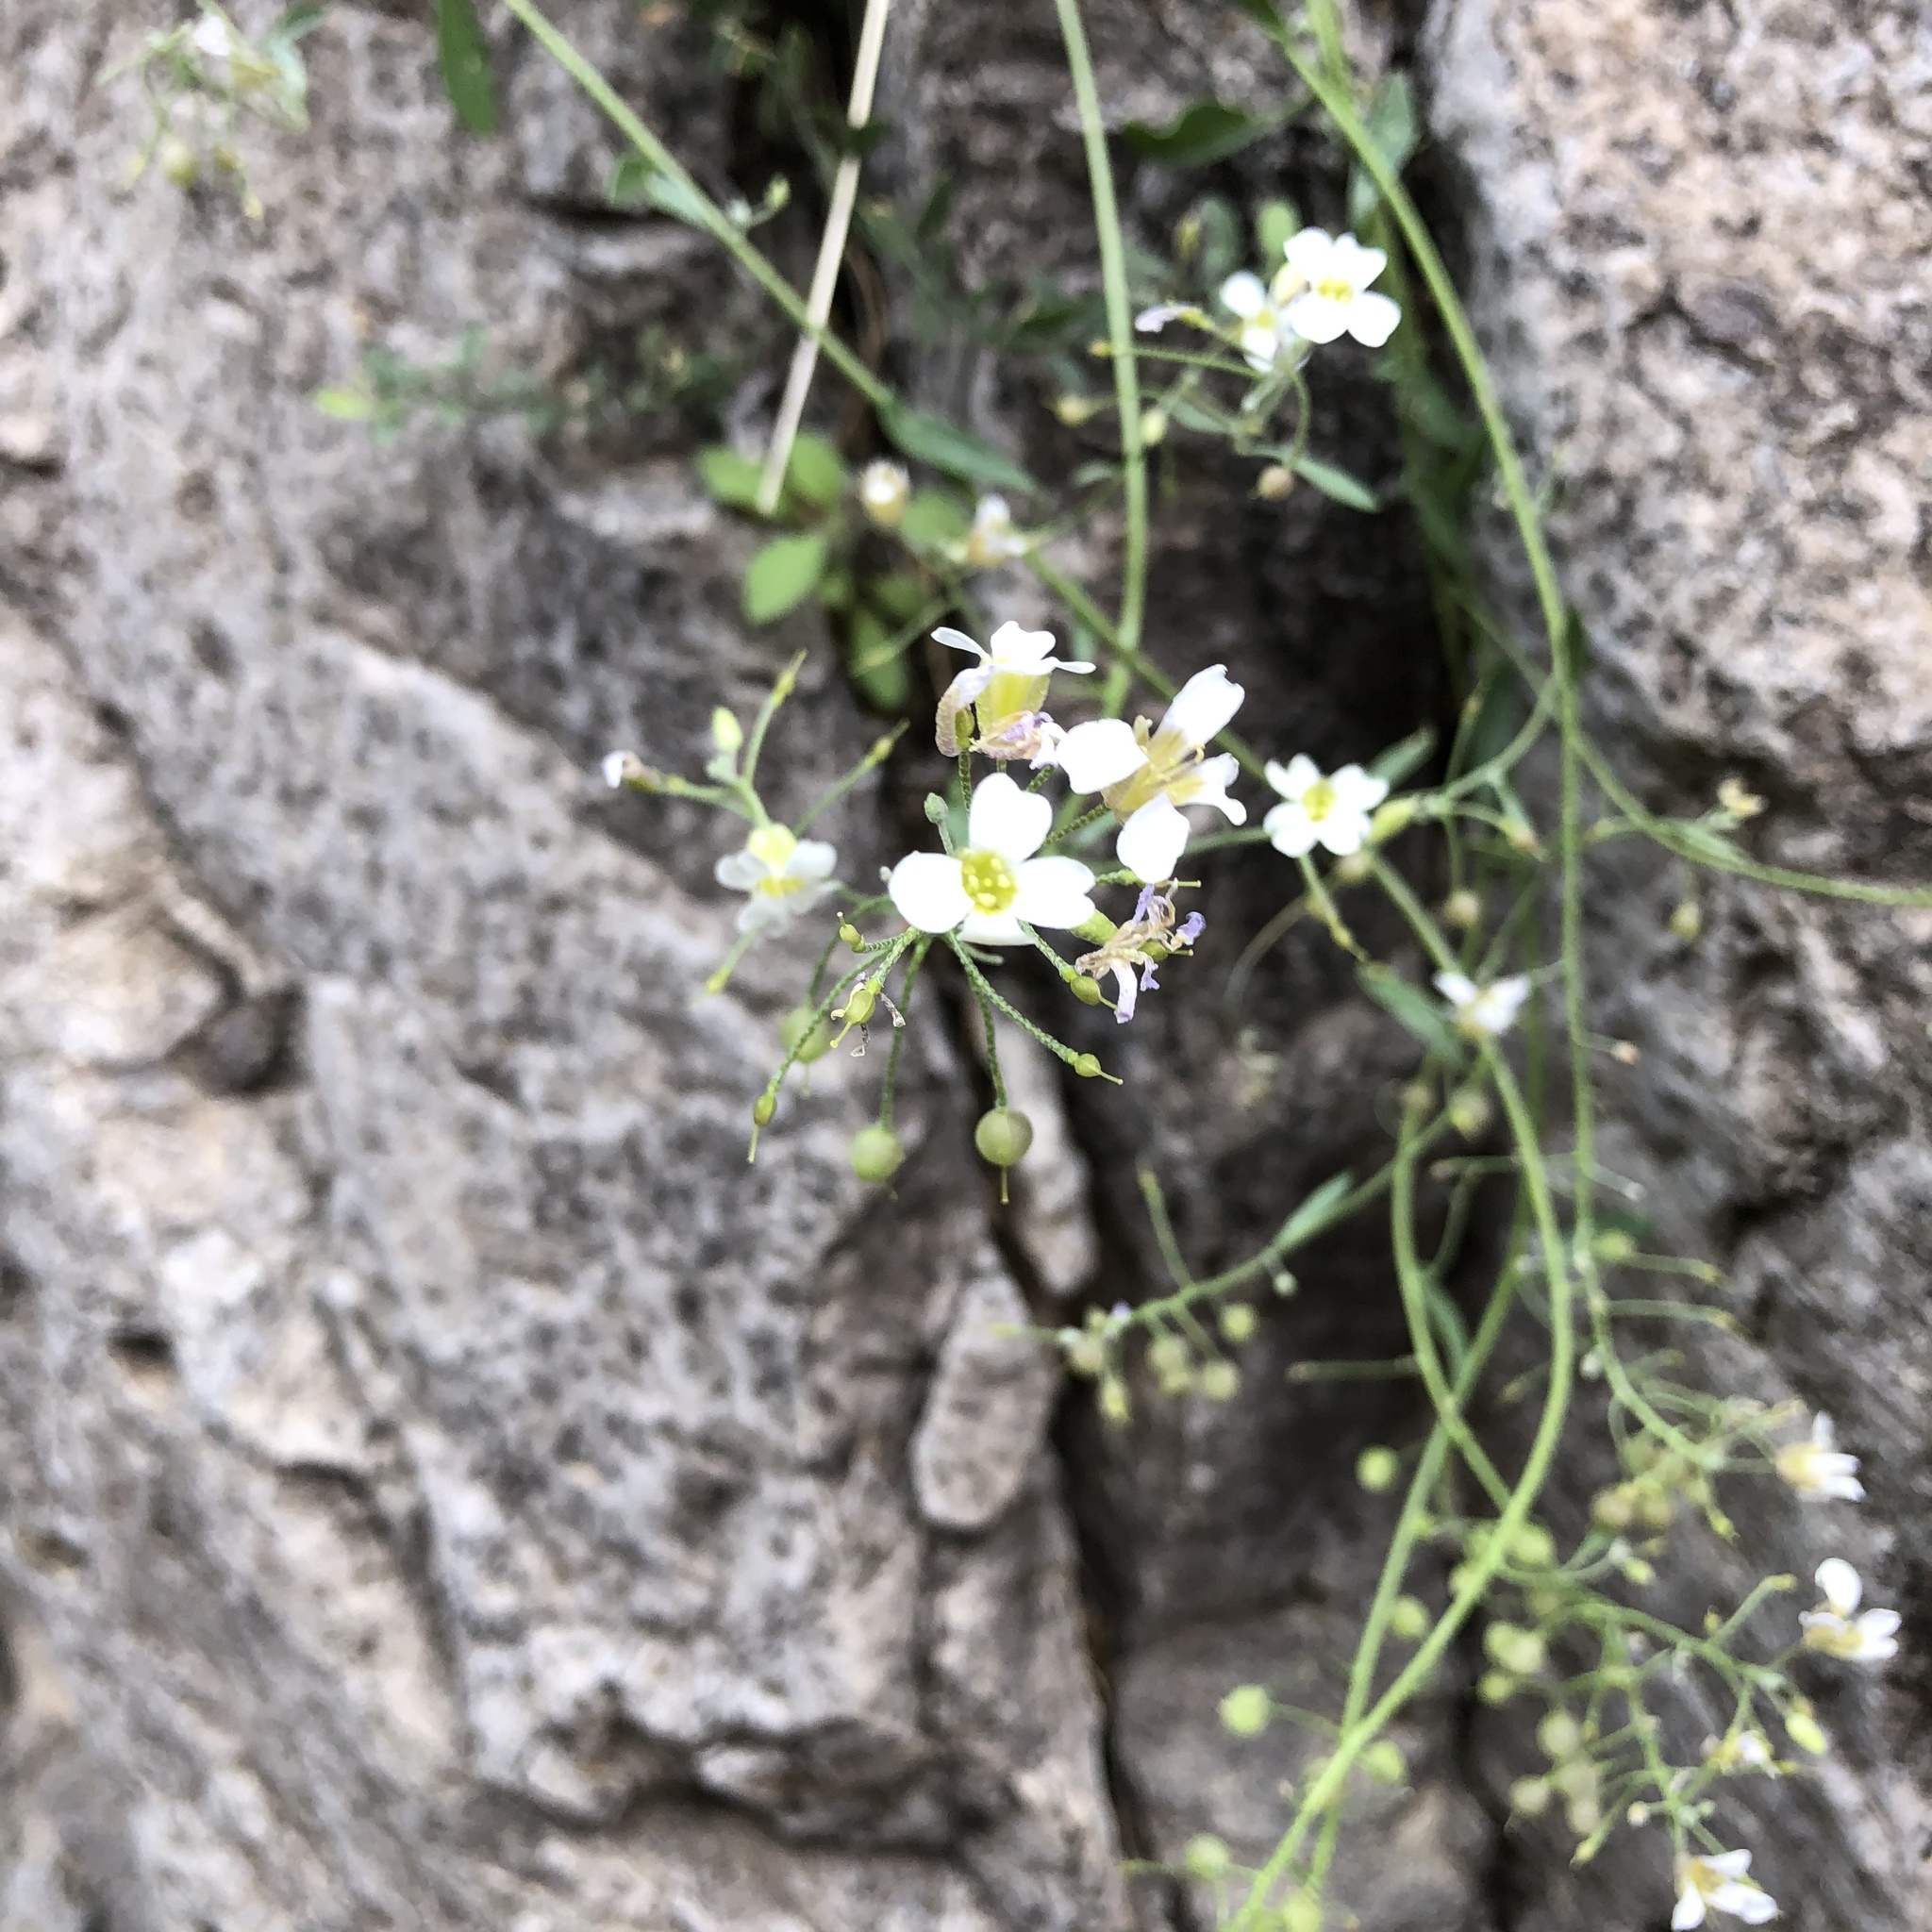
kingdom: Plantae
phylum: Tracheophyta
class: Magnoliopsida
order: Brassicales
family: Brassicaceae
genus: Physaria
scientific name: Physaria purpurea
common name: Rose bladderpod
